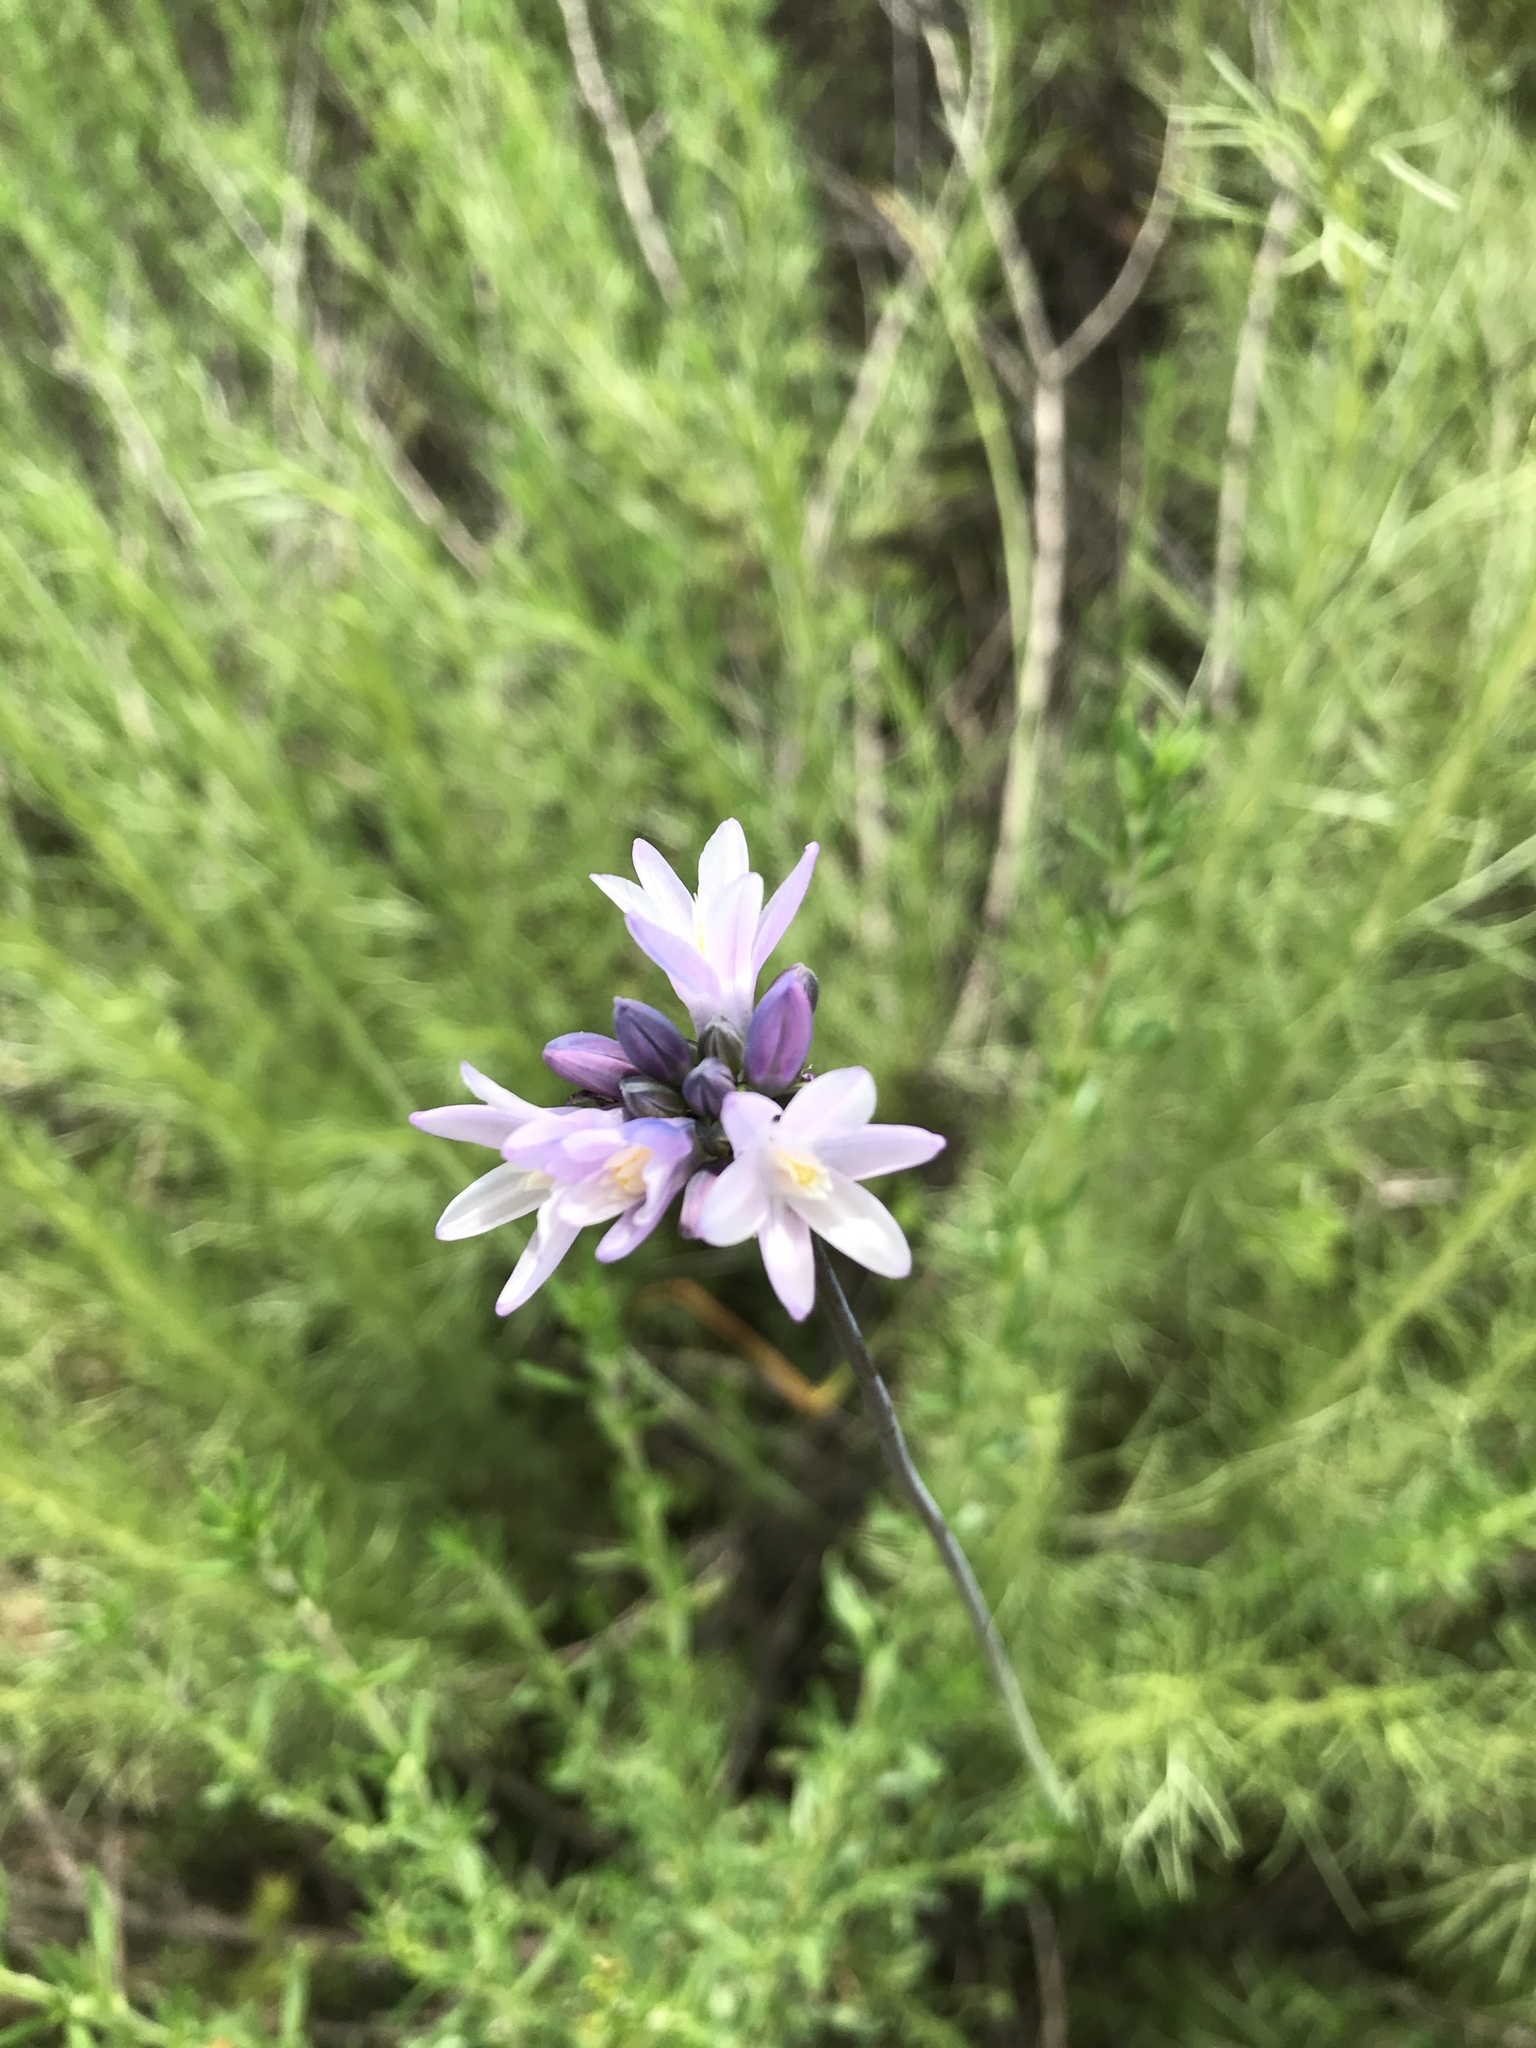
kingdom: Plantae
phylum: Tracheophyta
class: Liliopsida
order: Asparagales
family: Asparagaceae
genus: Dipterostemon
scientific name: Dipterostemon capitatus
